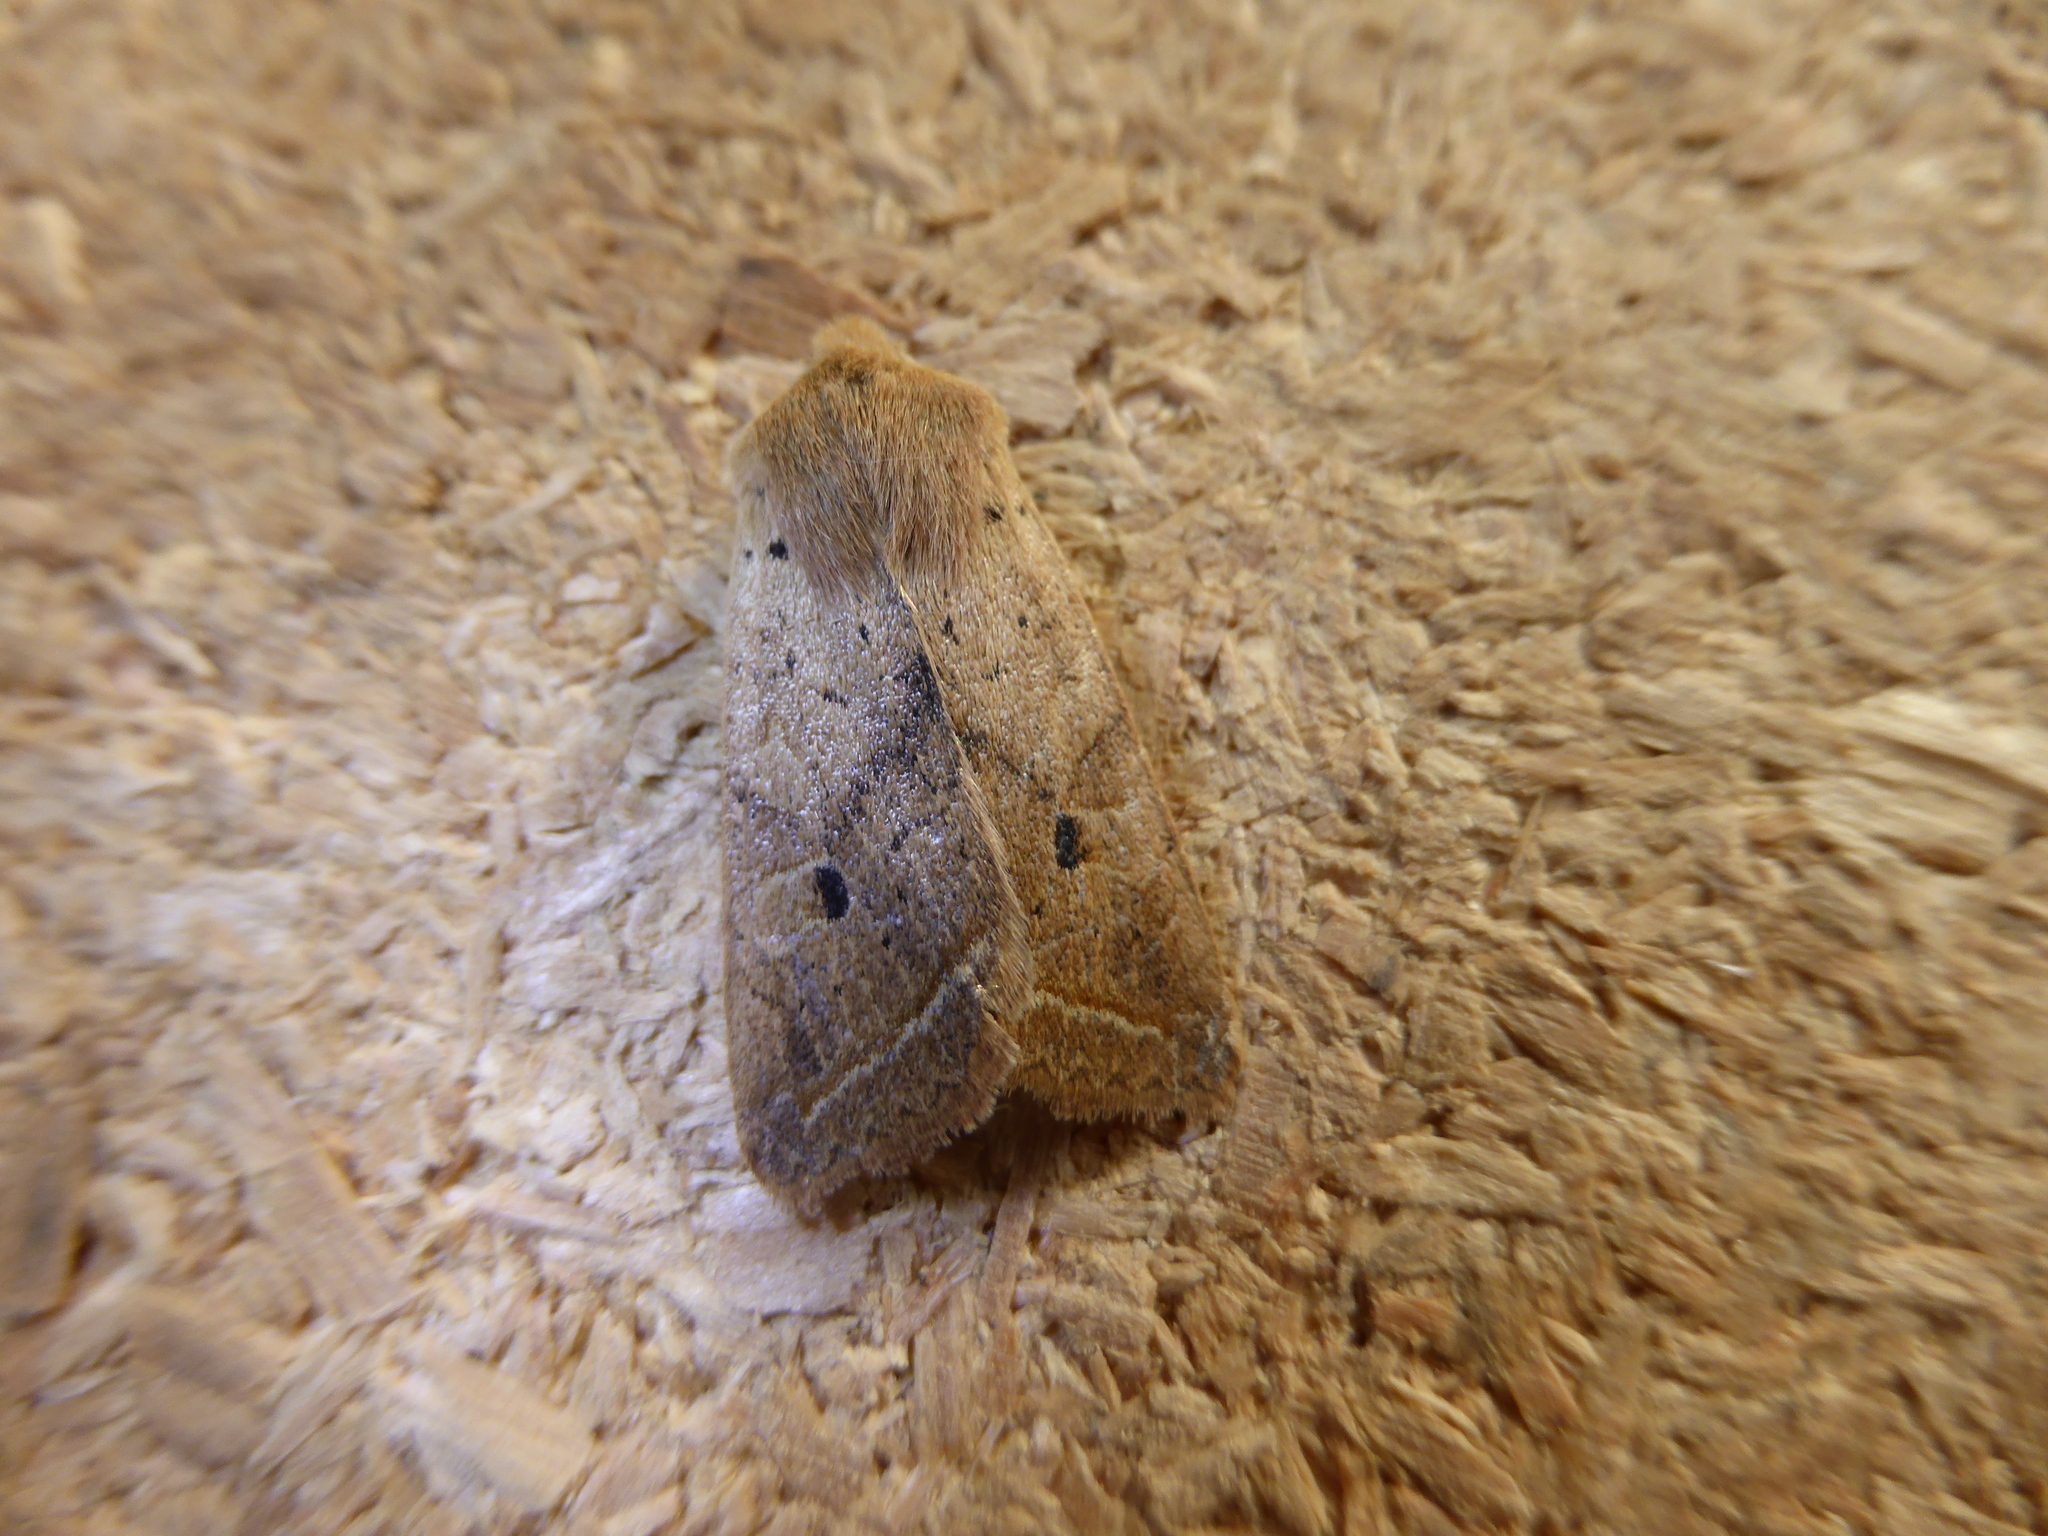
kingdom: Animalia
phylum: Arthropoda
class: Insecta
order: Lepidoptera
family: Noctuidae
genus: Agrochola
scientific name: Agrochola macilenta
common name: Yellow-line quaker
